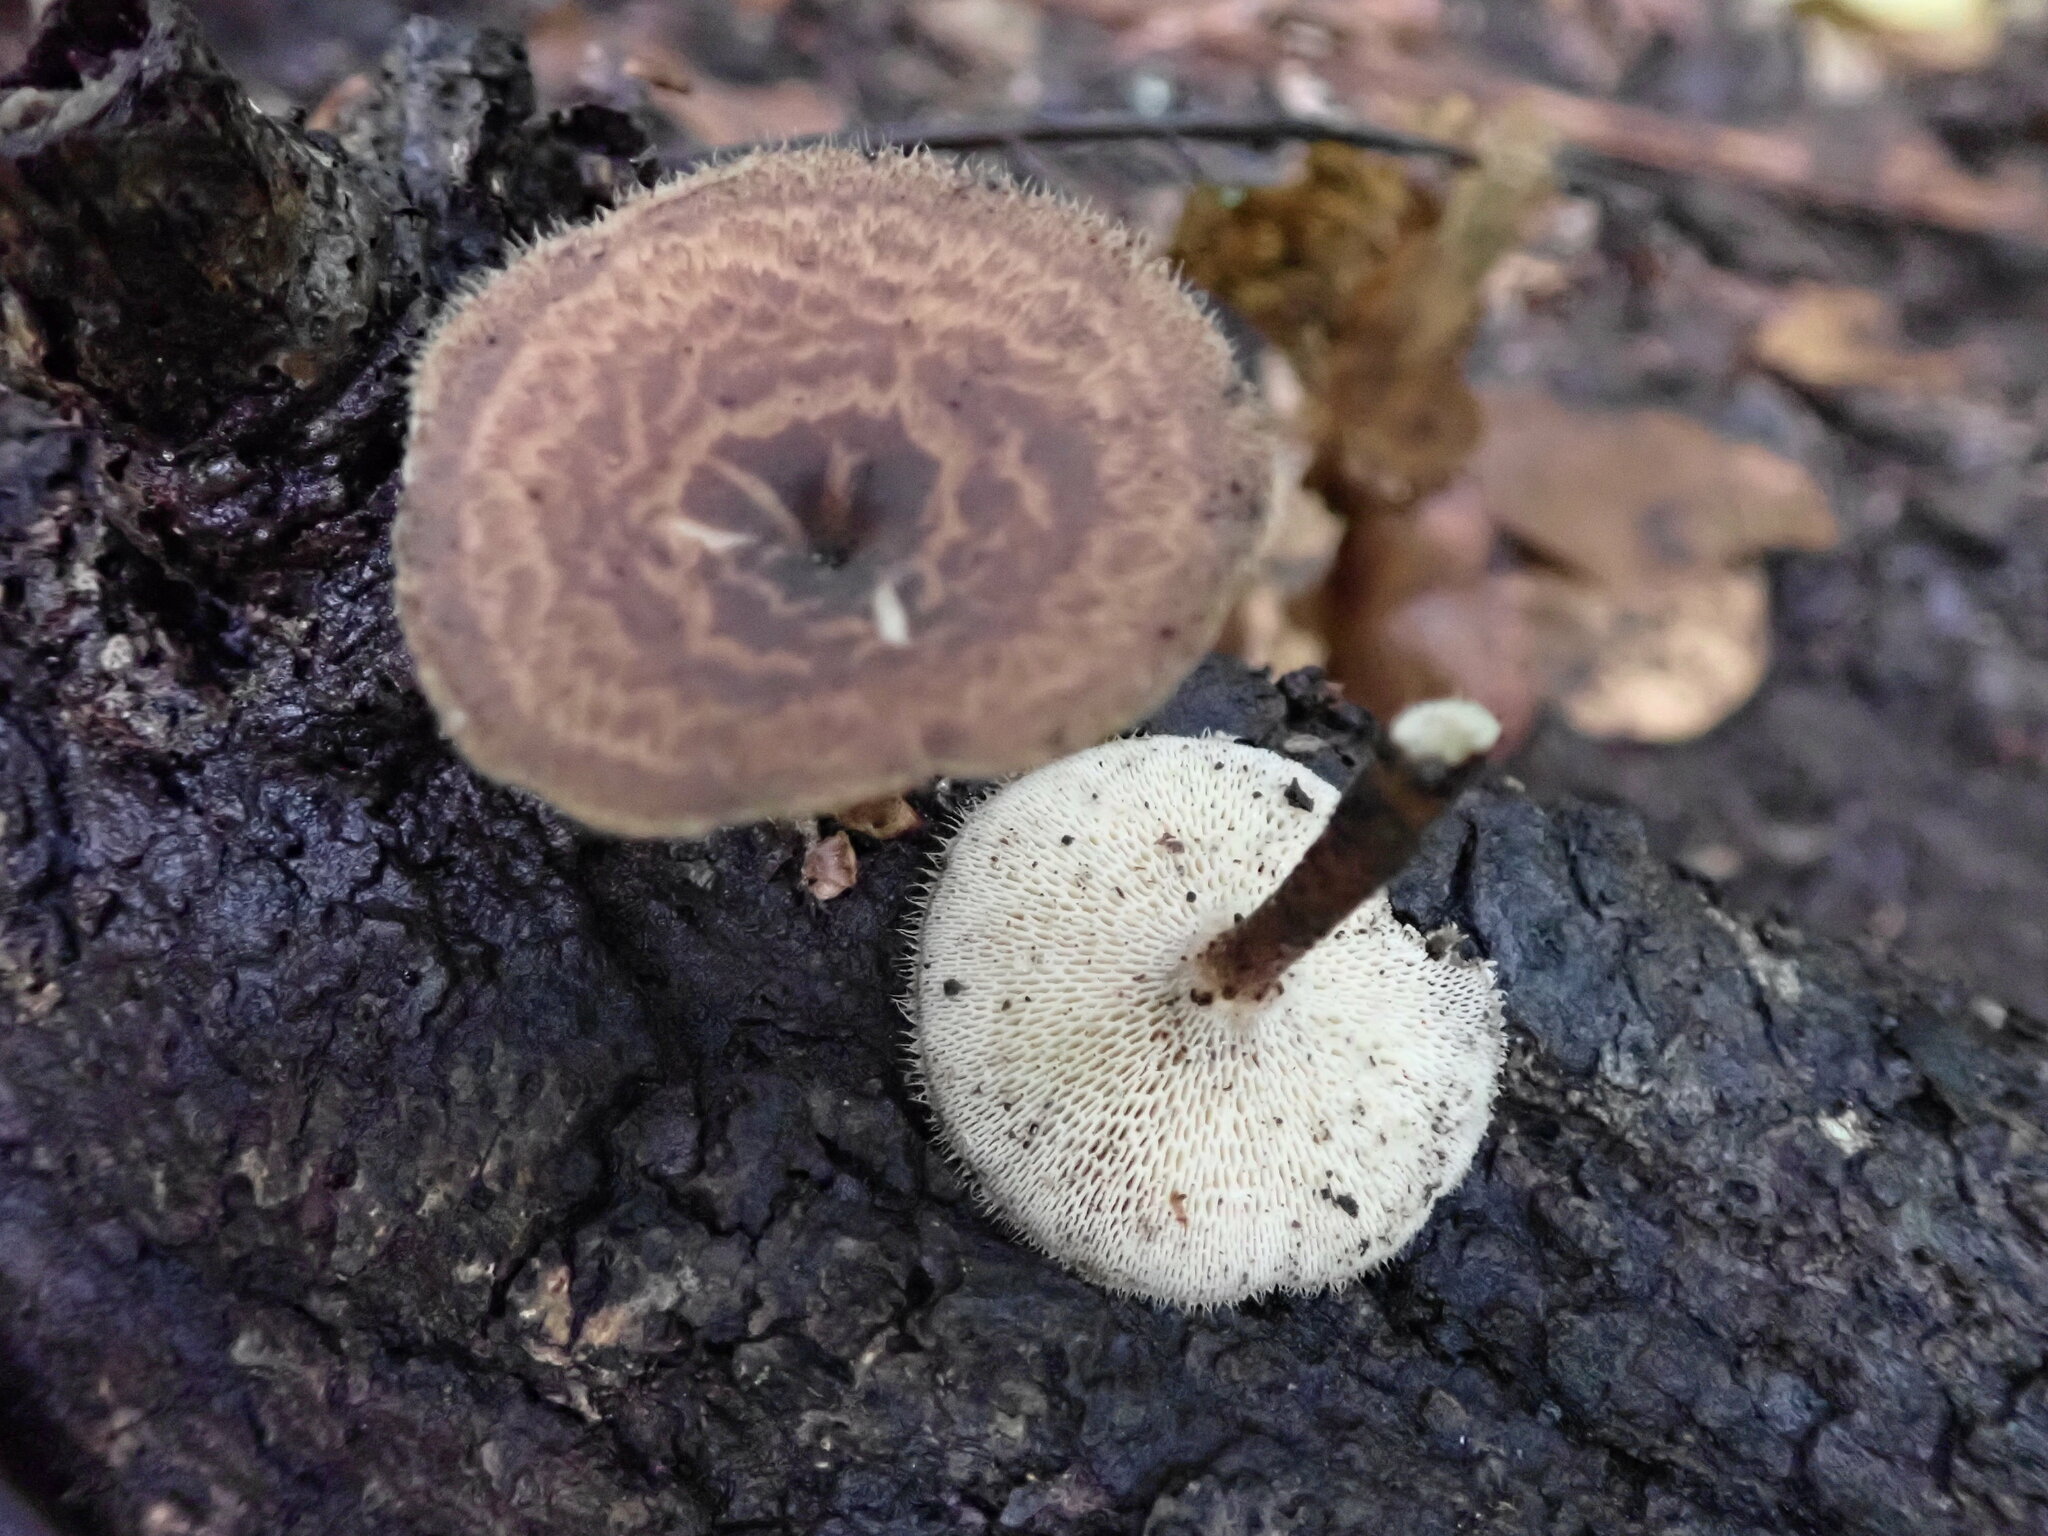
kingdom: Fungi
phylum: Basidiomycota
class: Agaricomycetes
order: Polyporales
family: Polyporaceae
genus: Lentinus
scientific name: Lentinus arcularius
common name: Spring polypore
